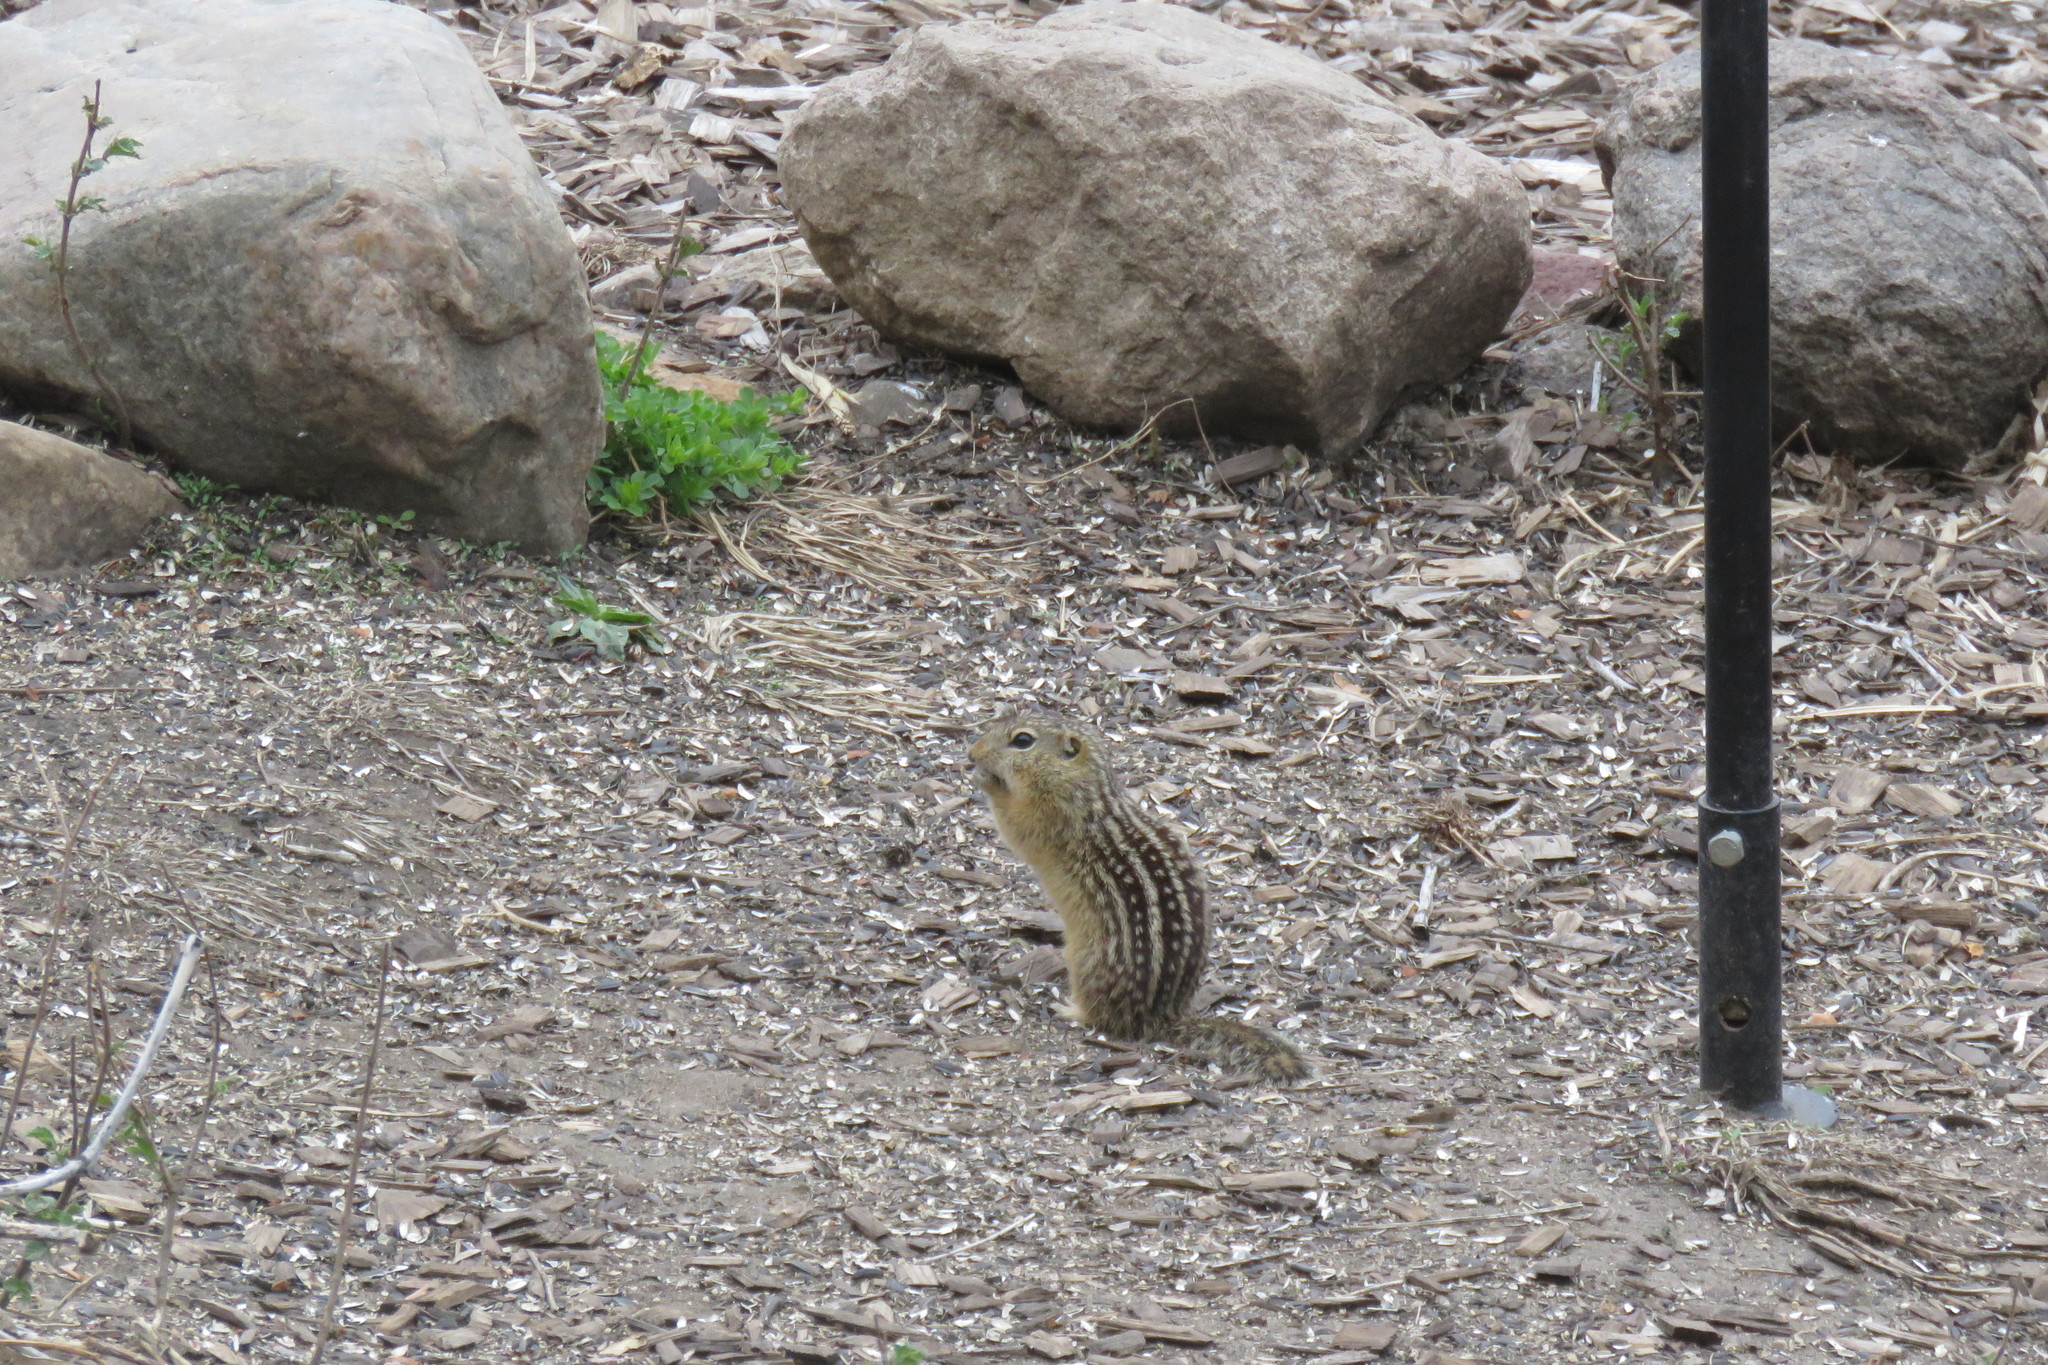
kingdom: Animalia
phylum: Chordata
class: Mammalia
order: Rodentia
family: Sciuridae
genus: Ictidomys
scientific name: Ictidomys tridecemlineatus
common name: Thirteen-lined ground squirrel
